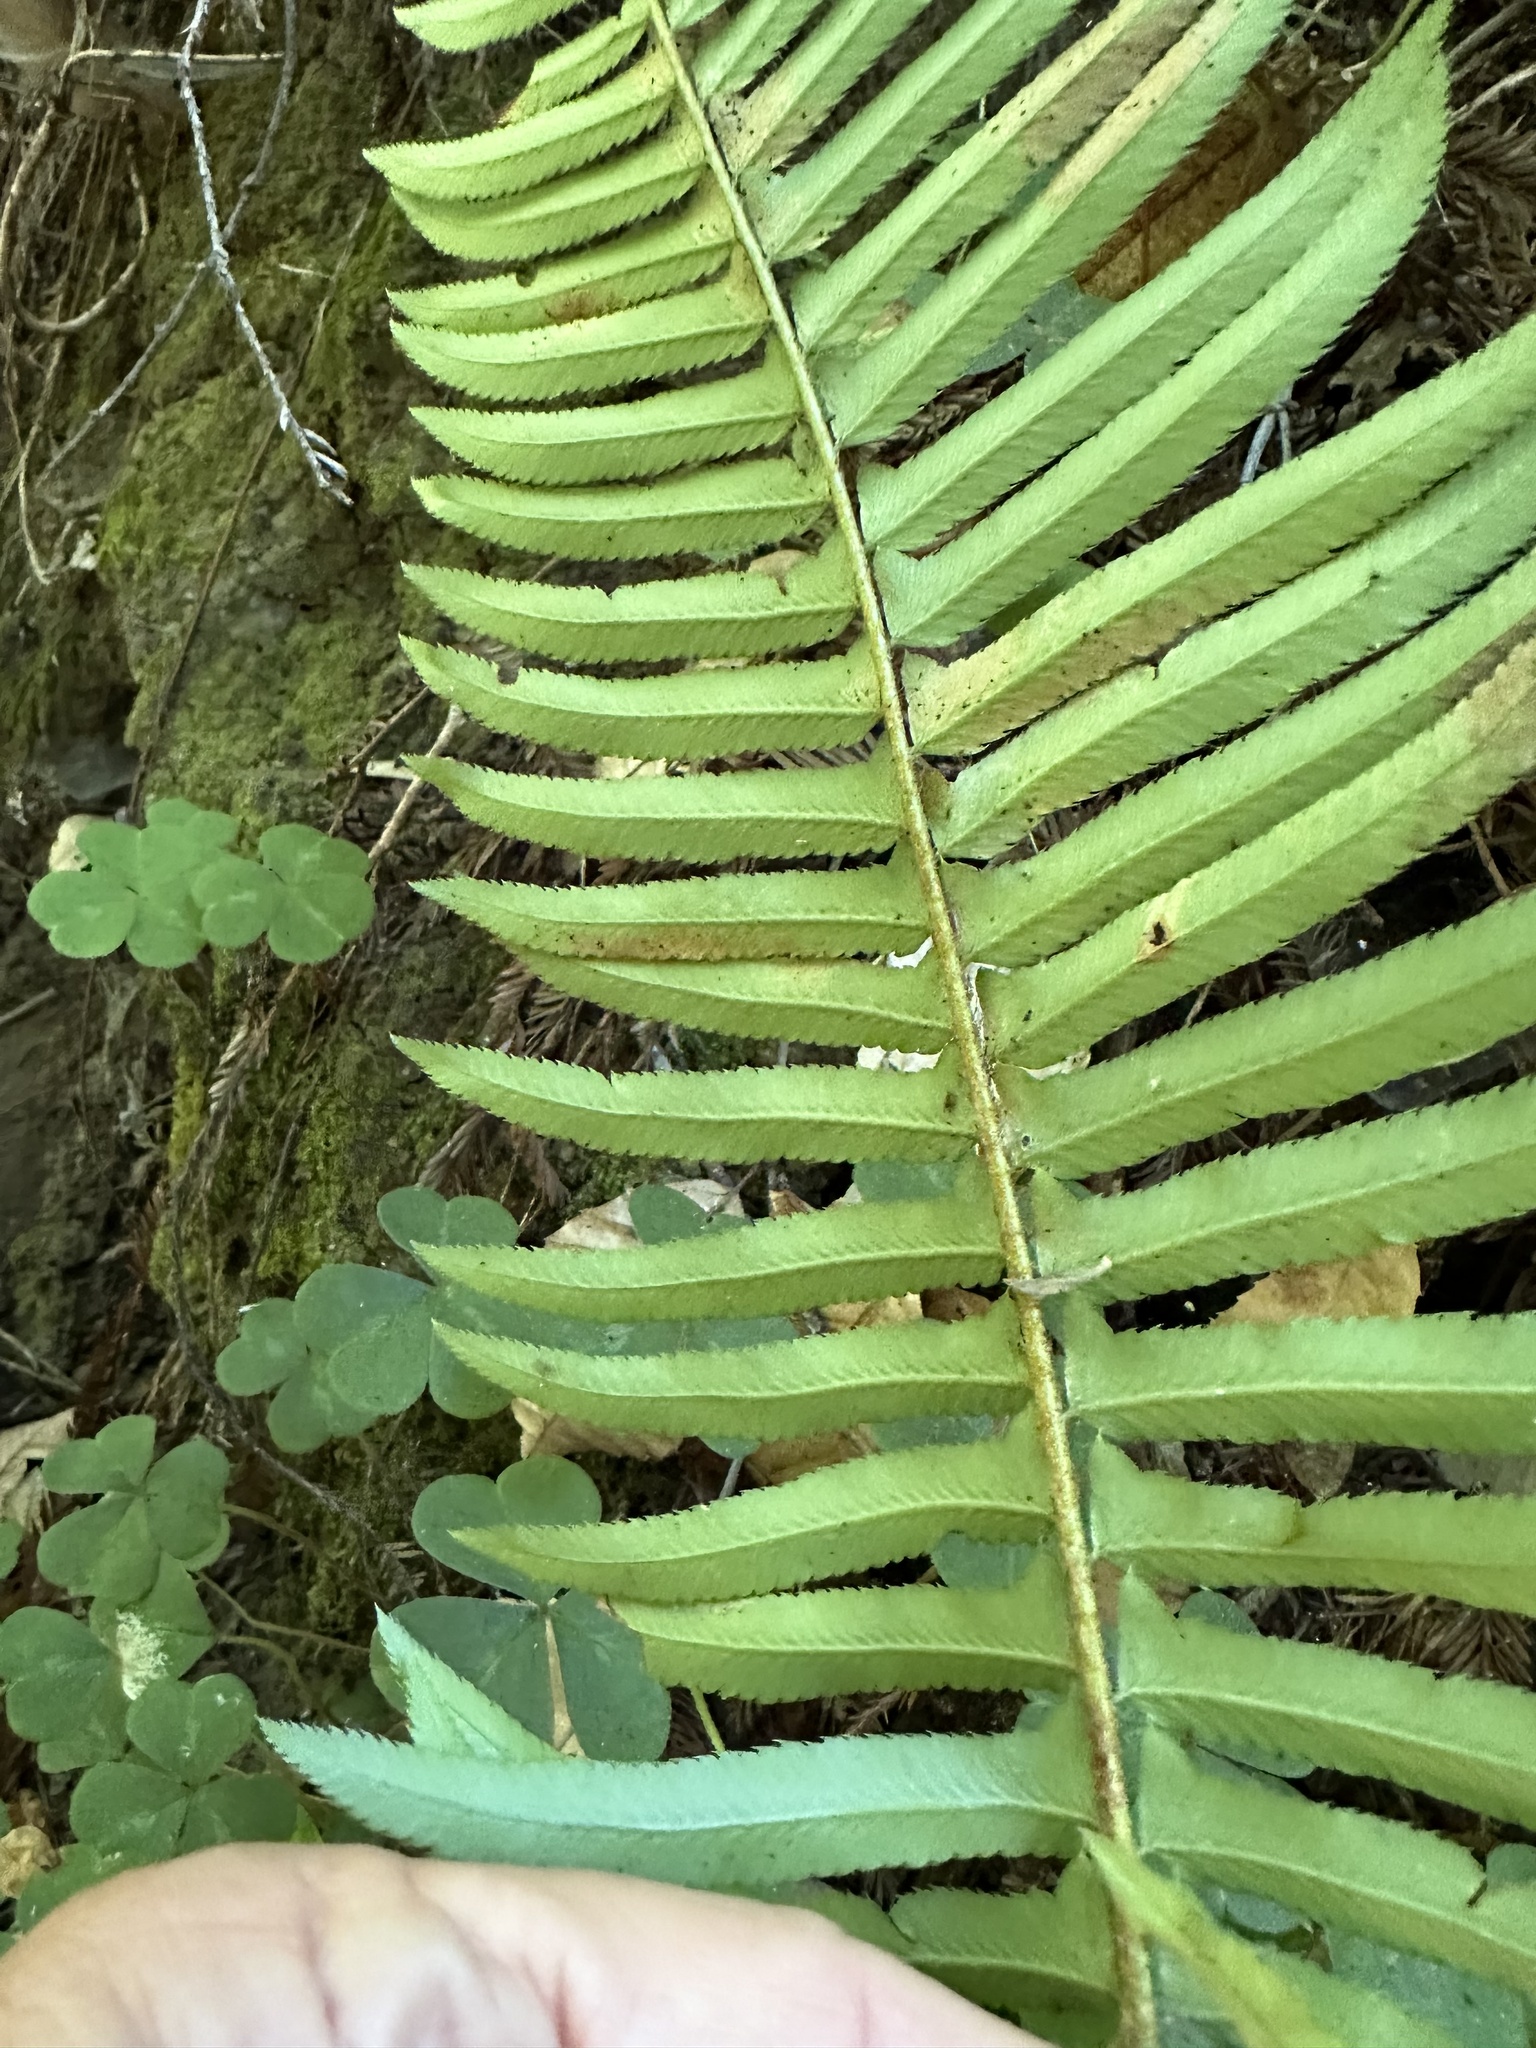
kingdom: Plantae
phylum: Tracheophyta
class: Polypodiopsida
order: Polypodiales
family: Dryopteridaceae
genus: Polystichum
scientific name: Polystichum munitum
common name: Western sword-fern
